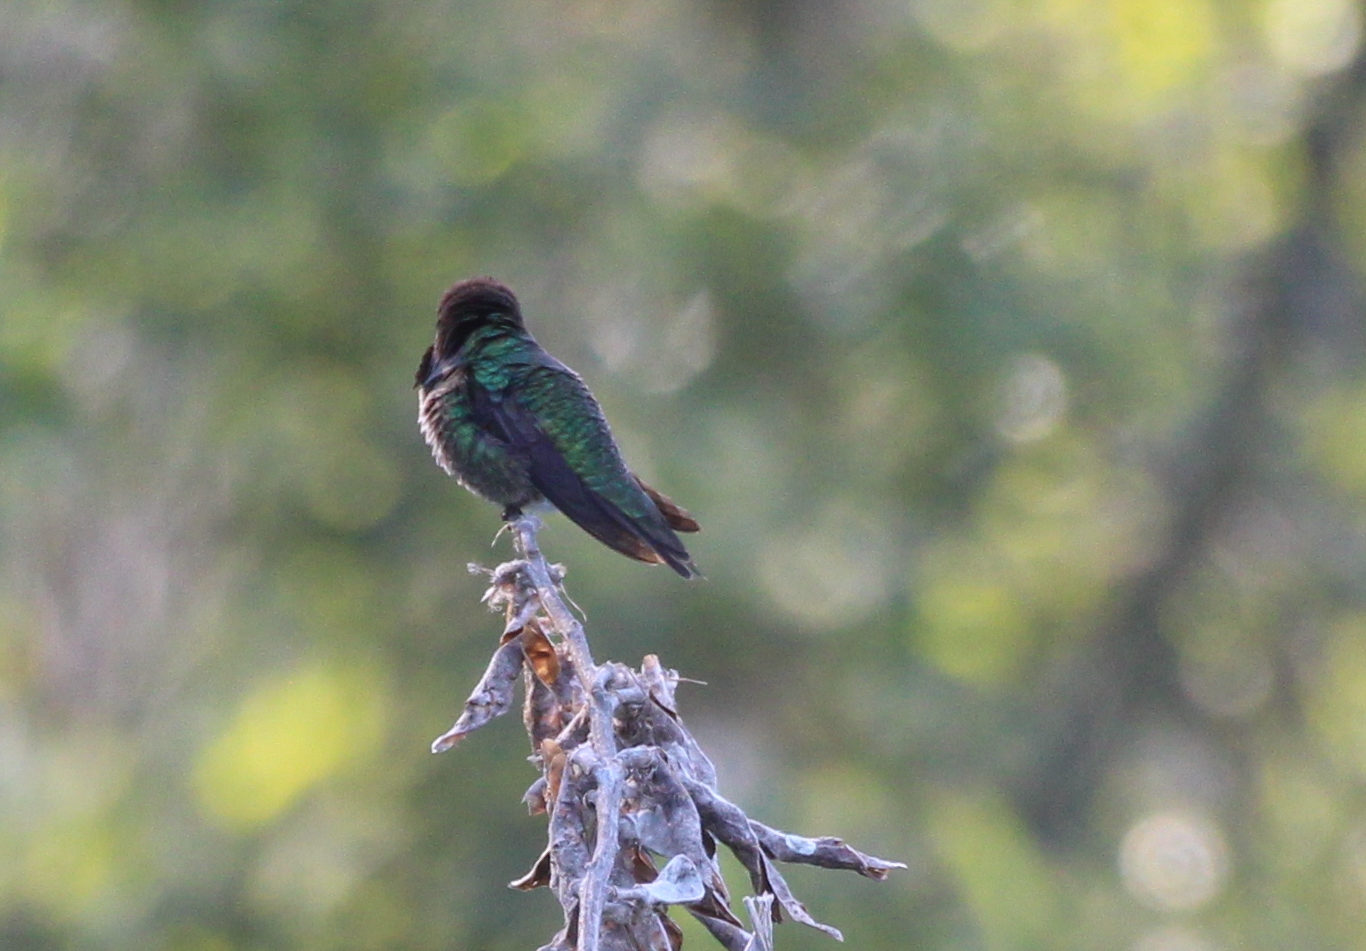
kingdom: Animalia
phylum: Chordata
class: Aves
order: Apodiformes
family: Trochilidae
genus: Calypte
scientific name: Calypte anna
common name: Anna's hummingbird
